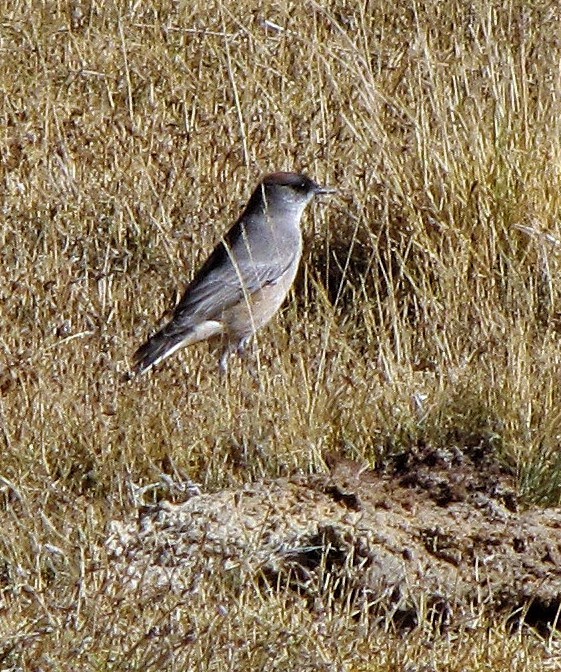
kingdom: Animalia
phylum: Chordata
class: Aves
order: Passeriformes
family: Tyrannidae
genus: Muscisaxicola
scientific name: Muscisaxicola capistratus
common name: Cinnamon-bellied ground tyrant
